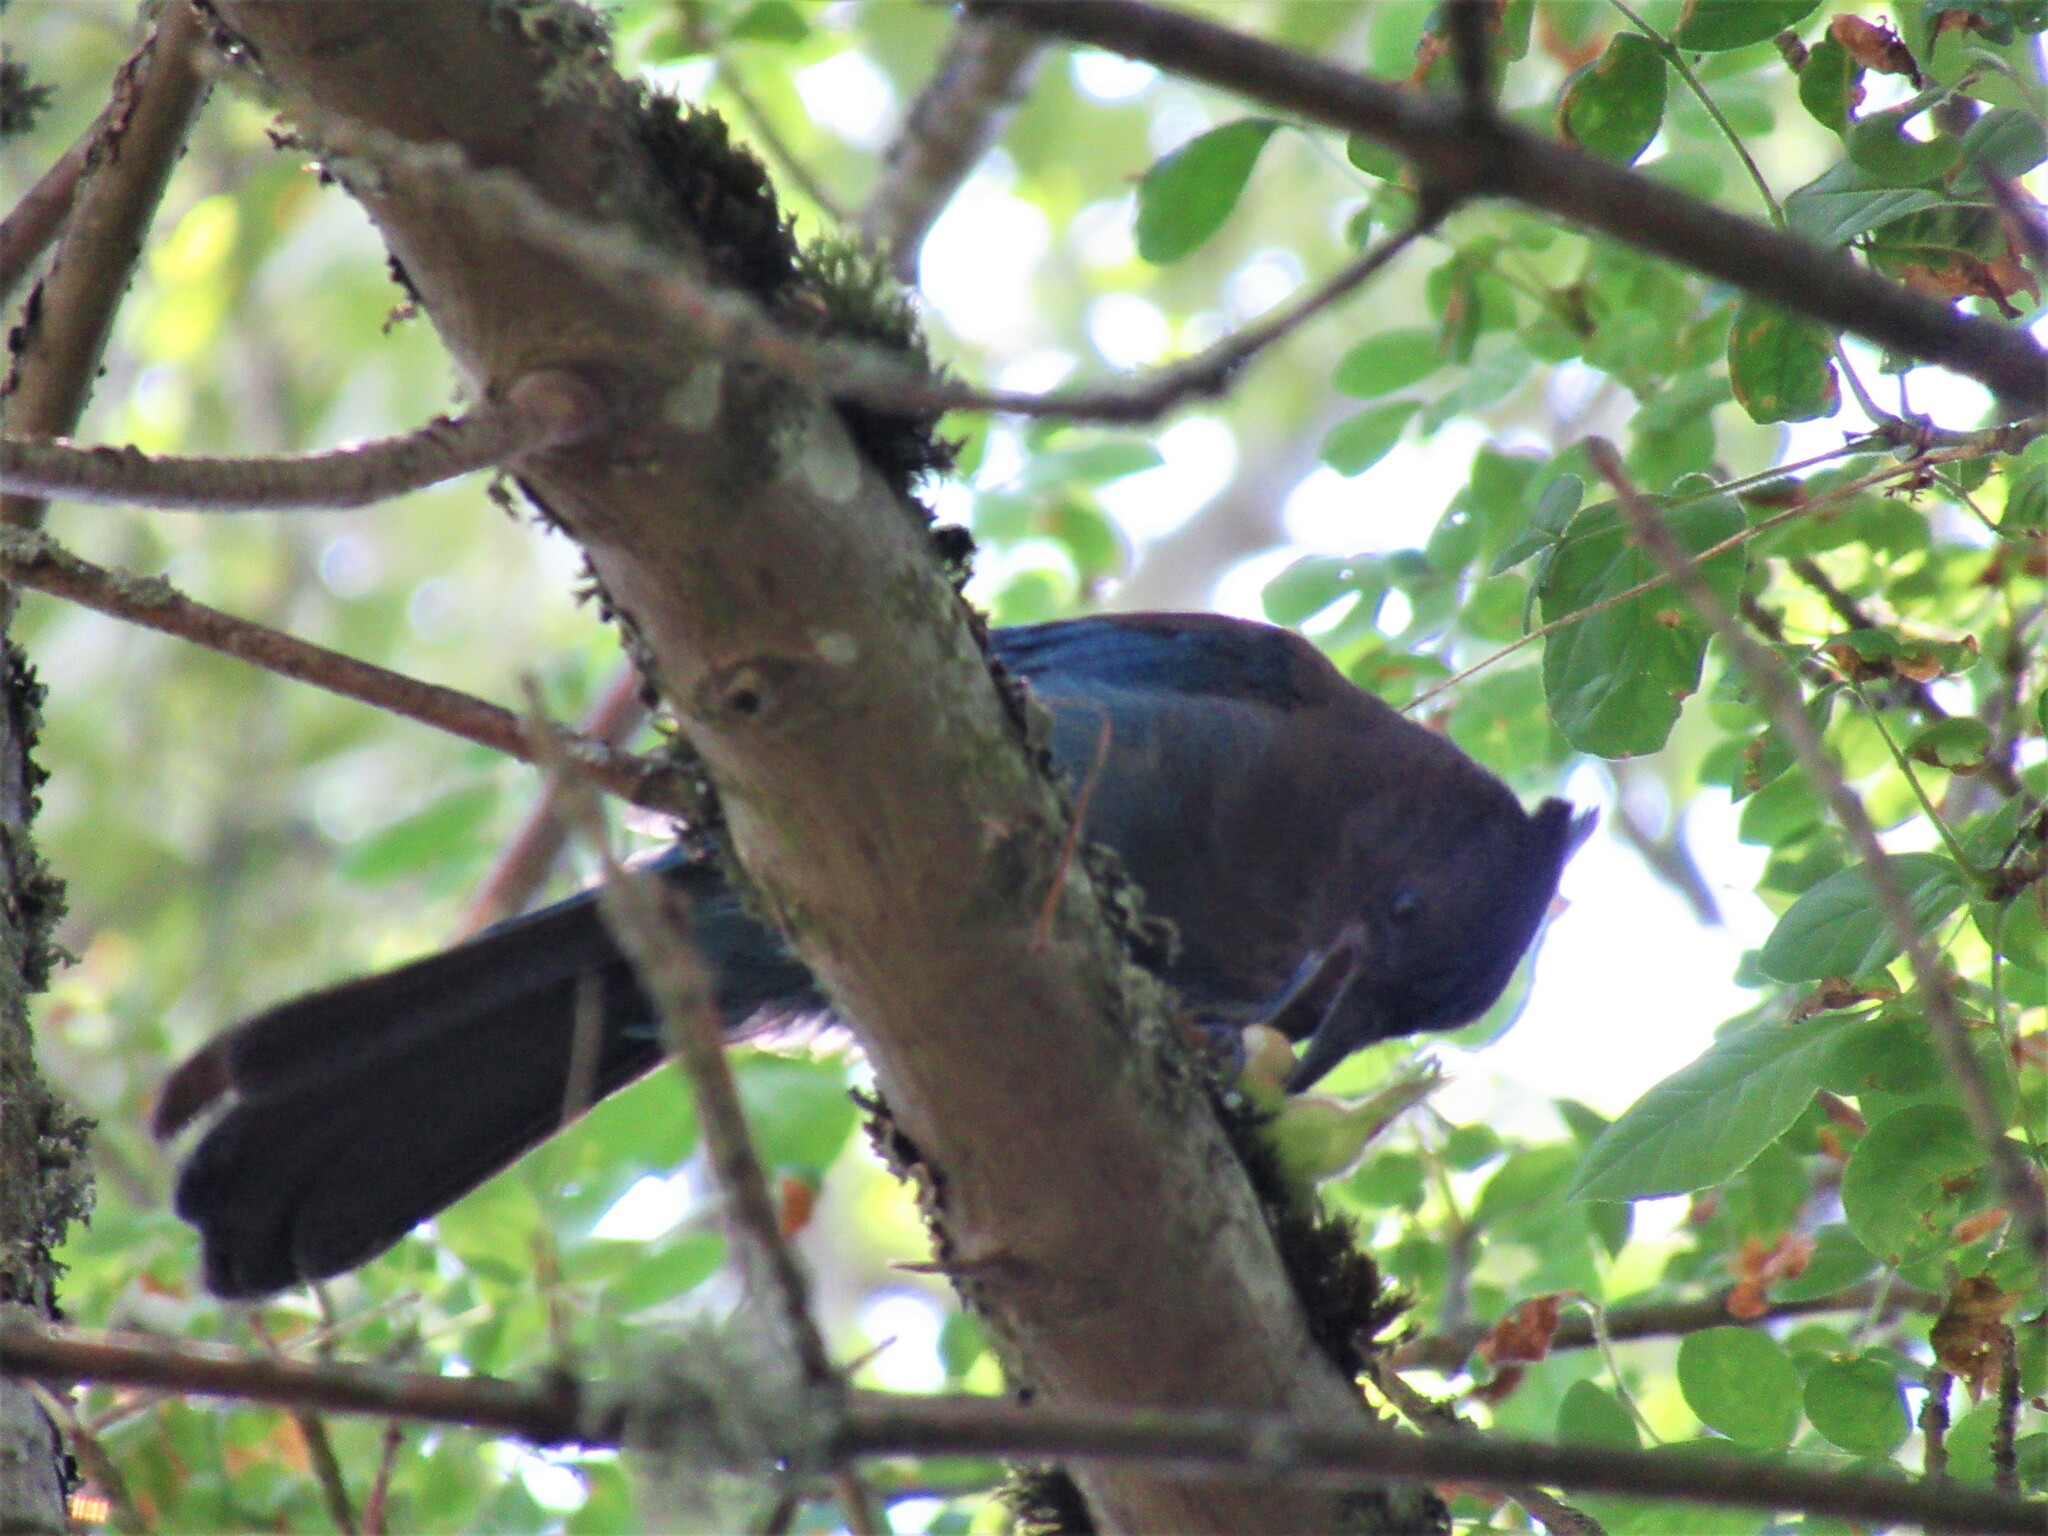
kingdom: Animalia
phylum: Chordata
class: Aves
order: Passeriformes
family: Corvidae
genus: Cyanocitta
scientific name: Cyanocitta stelleri
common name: Steller's jay
